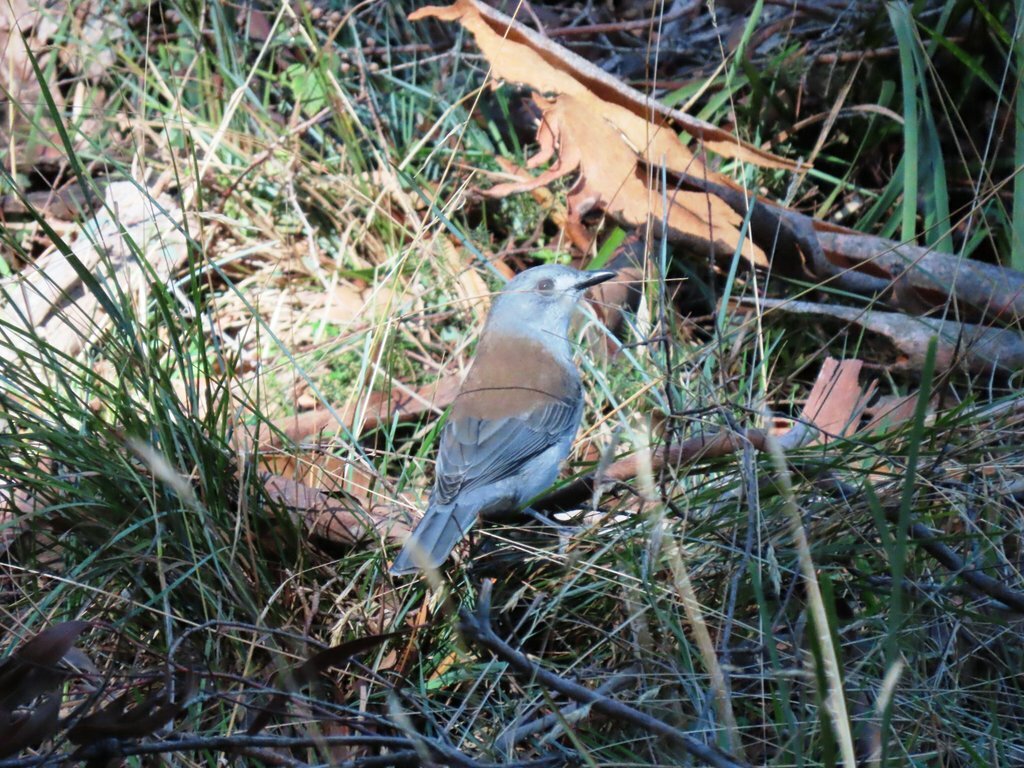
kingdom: Animalia
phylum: Chordata
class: Aves
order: Passeriformes
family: Pachycephalidae
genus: Colluricincla
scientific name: Colluricincla harmonica
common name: Grey shrikethrush
